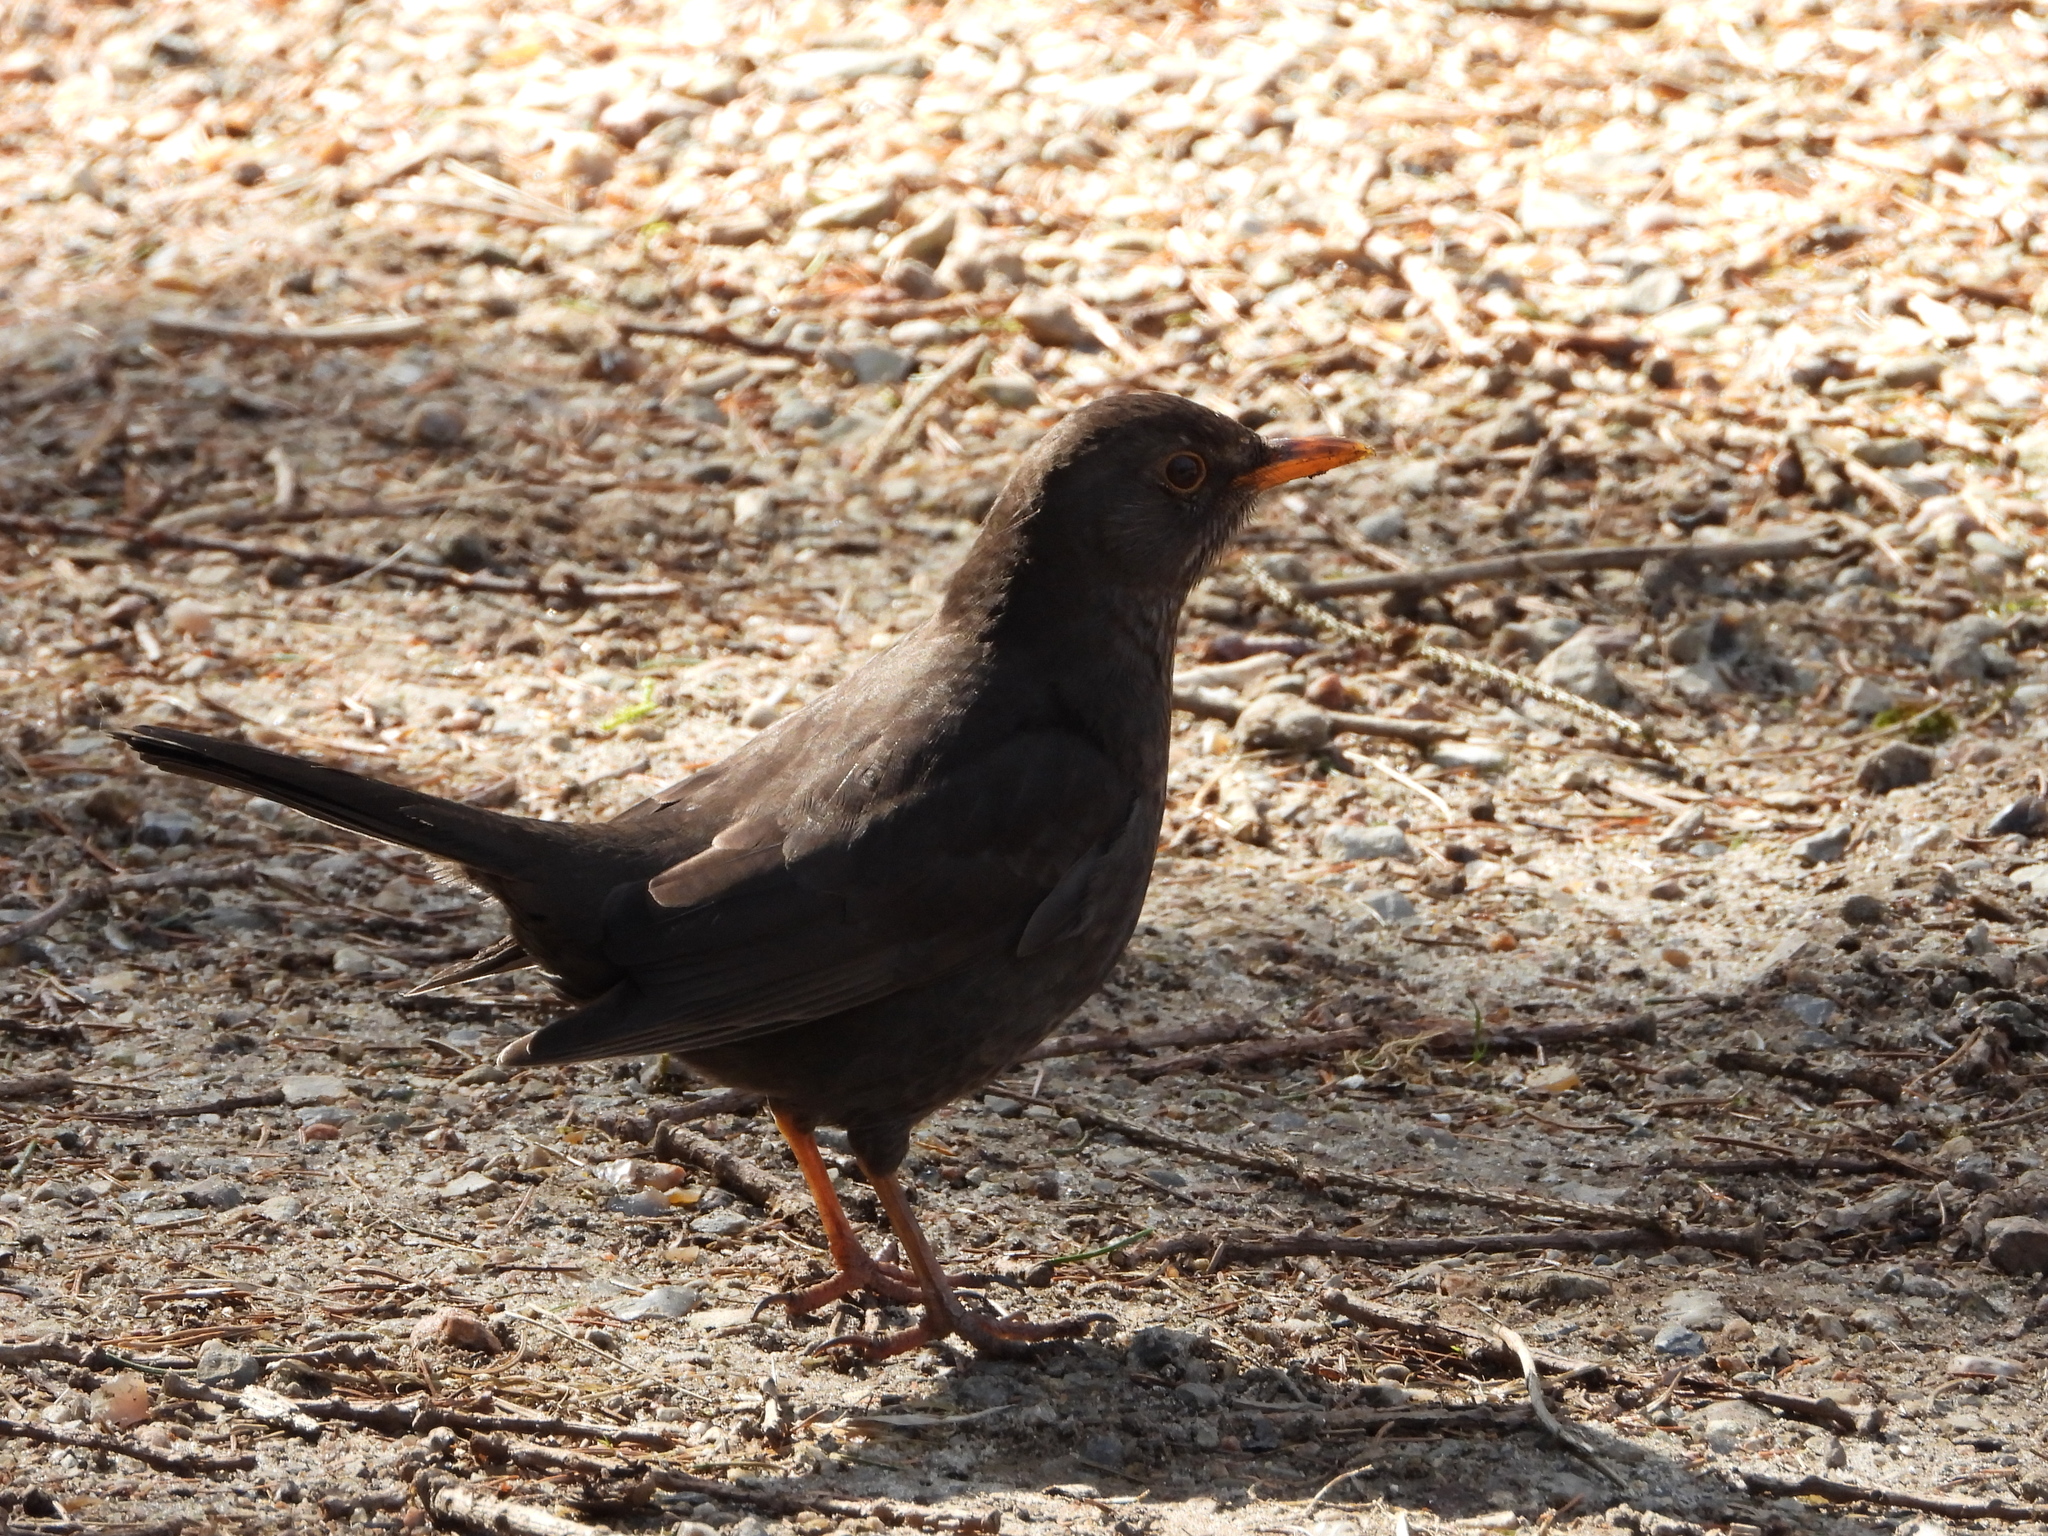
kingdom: Animalia
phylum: Chordata
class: Aves
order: Passeriformes
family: Turdidae
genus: Turdus
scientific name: Turdus merula
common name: Common blackbird
